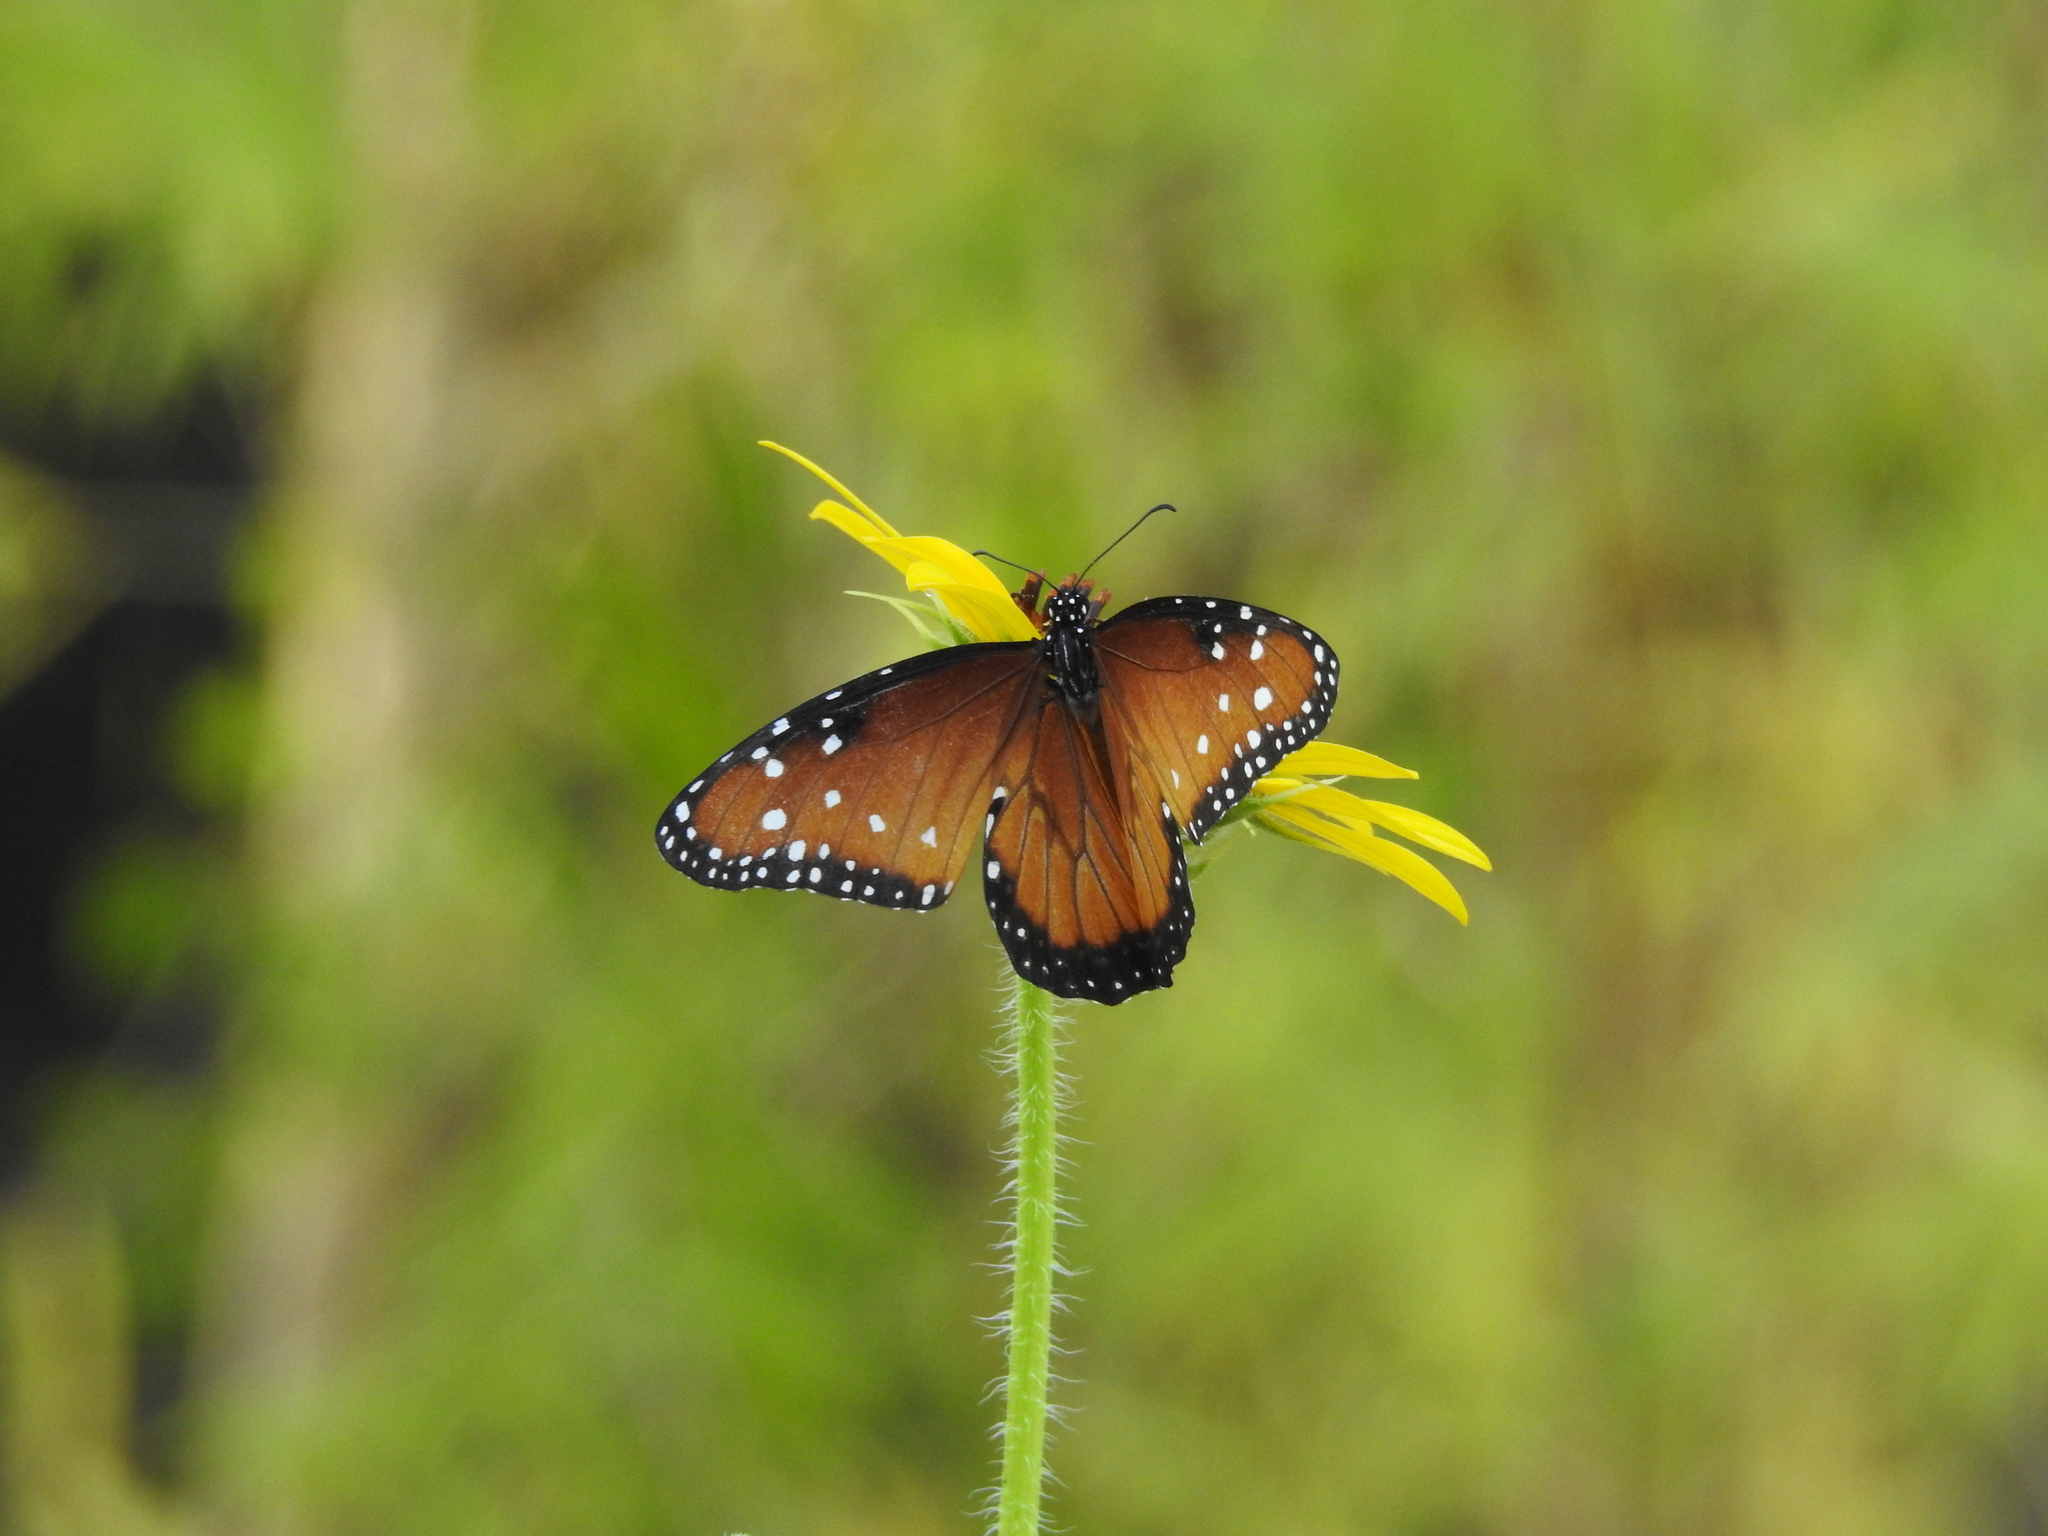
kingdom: Animalia
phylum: Arthropoda
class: Insecta
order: Lepidoptera
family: Nymphalidae
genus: Danaus
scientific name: Danaus gilippus
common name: Queen
